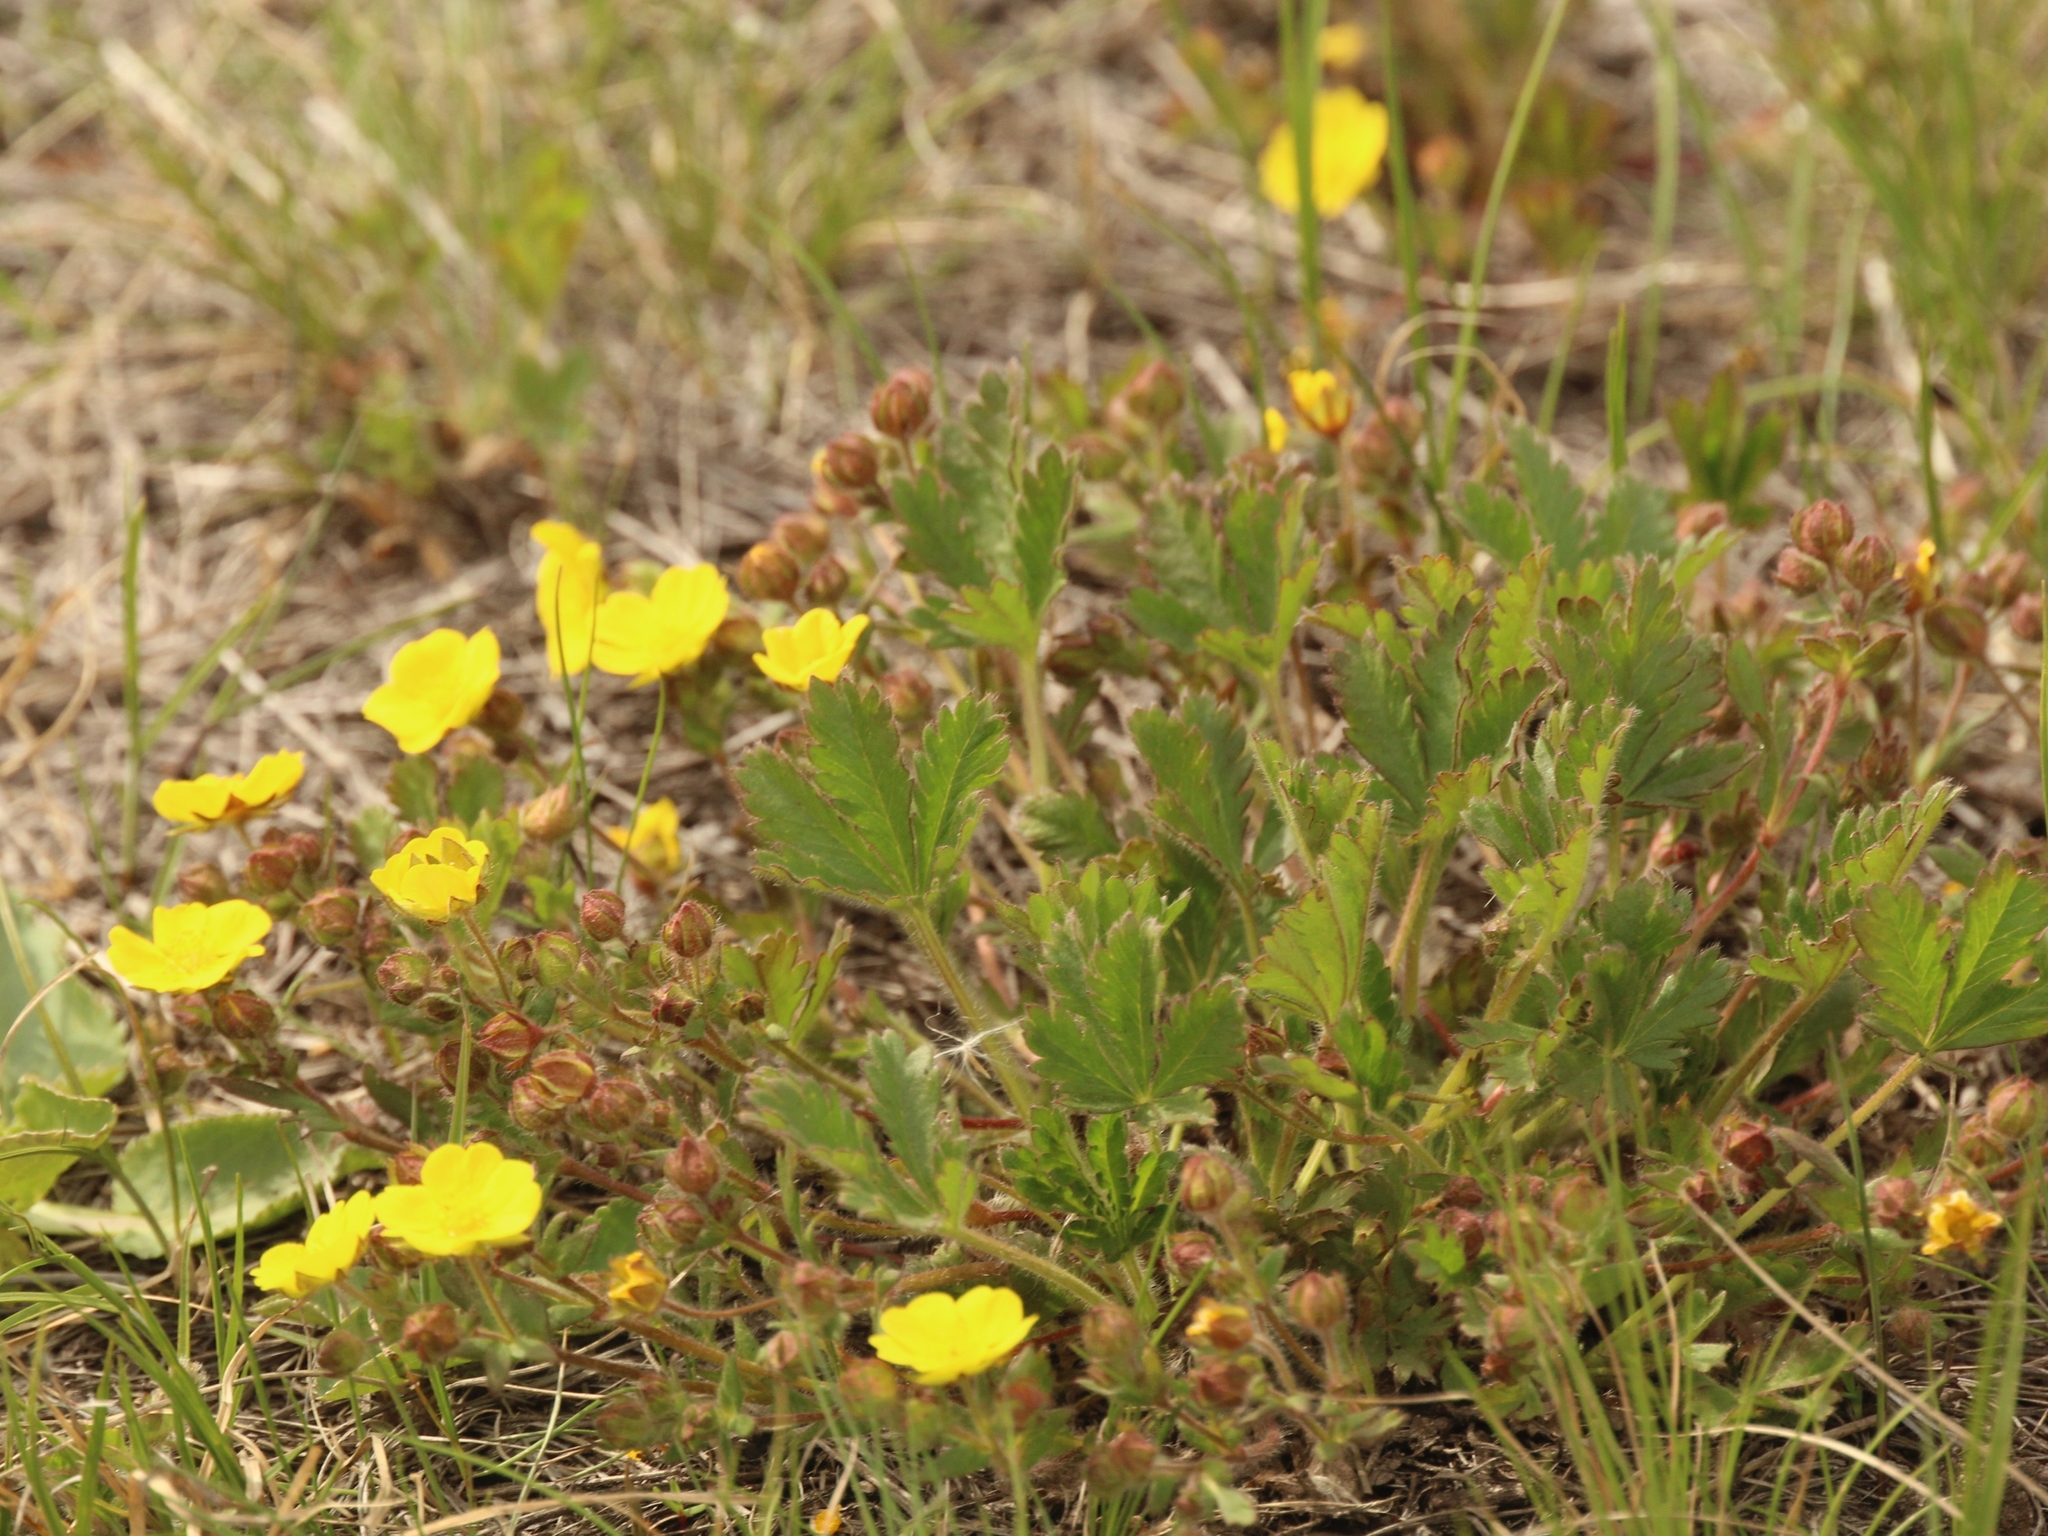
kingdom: Plantae
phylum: Tracheophyta
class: Magnoliopsida
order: Rosales
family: Rosaceae
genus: Potentilla
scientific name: Potentilla humifusa
